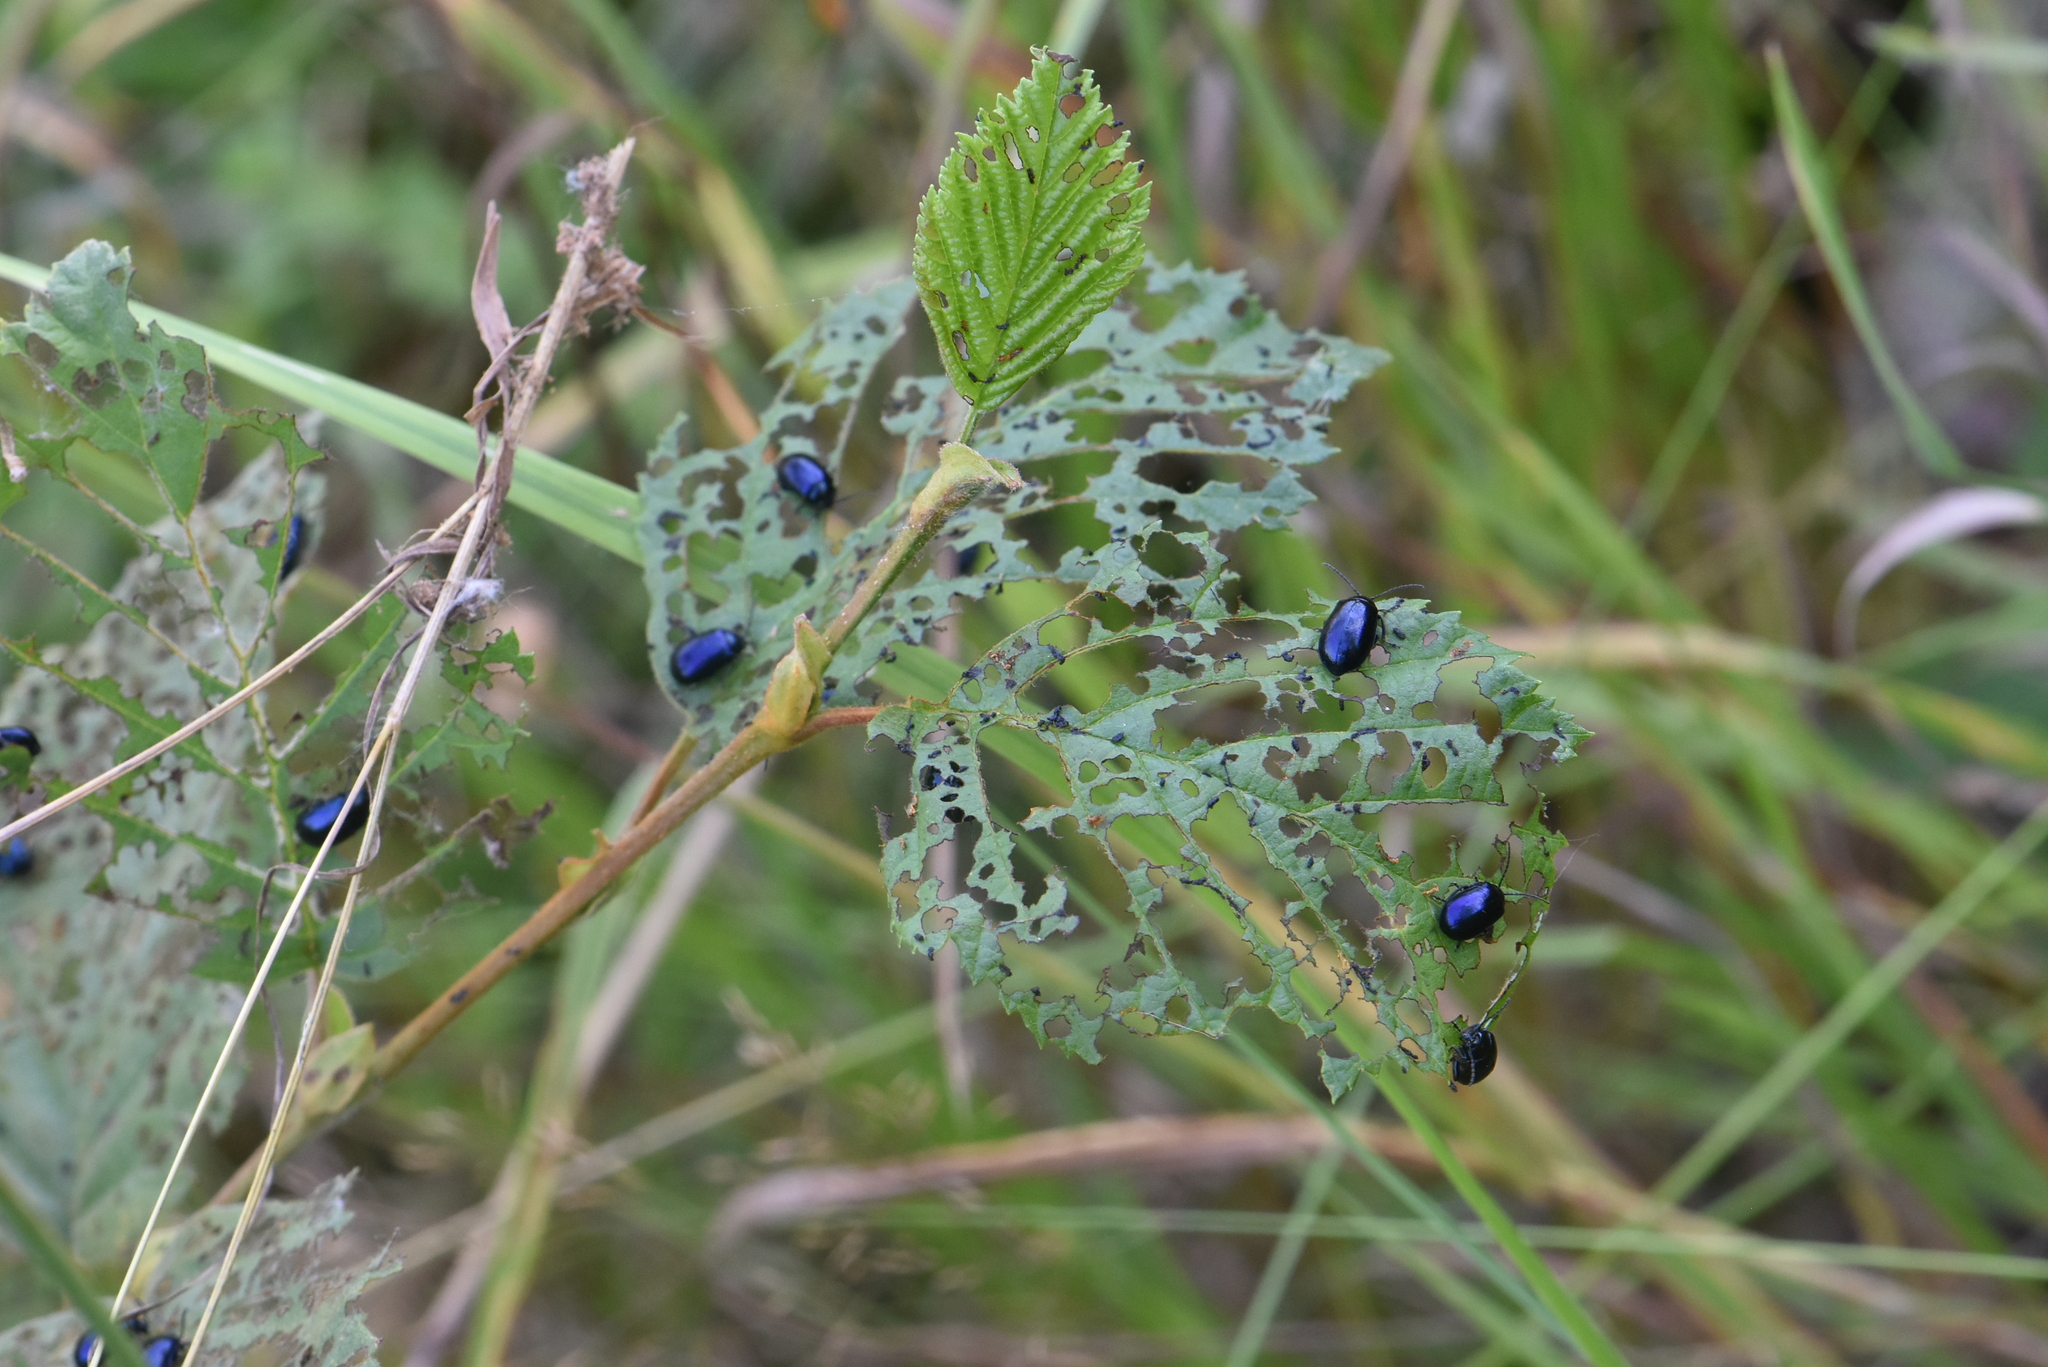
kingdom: Animalia
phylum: Arthropoda
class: Insecta
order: Coleoptera
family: Chrysomelidae
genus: Agelastica
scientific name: Agelastica alni
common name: Alder leaf beetle
